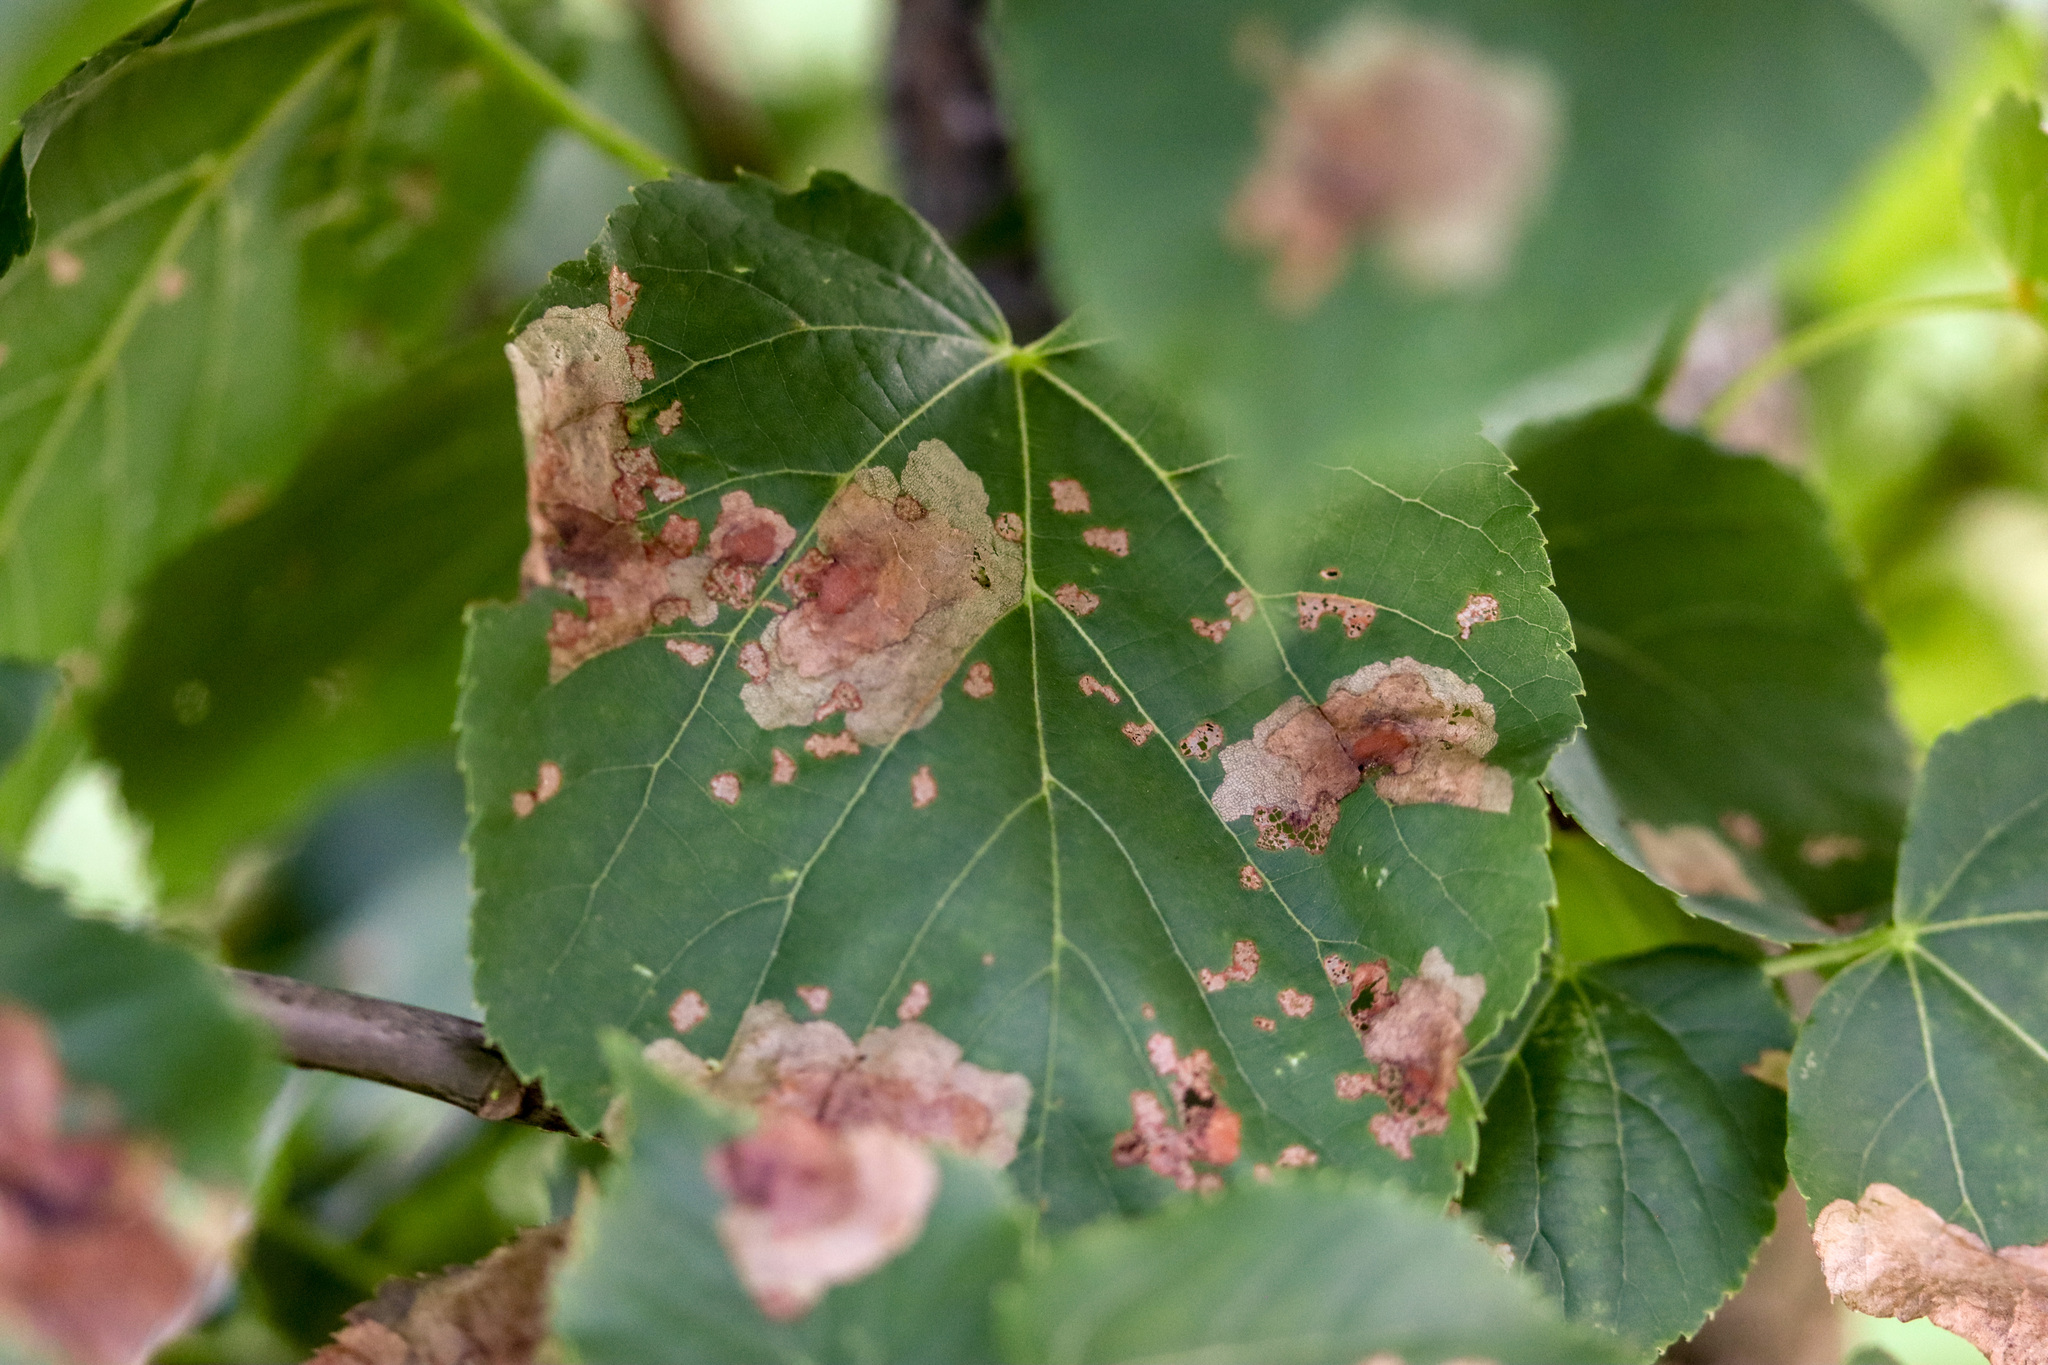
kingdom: Animalia
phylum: Arthropoda
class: Insecta
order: Coleoptera
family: Chrysomelidae
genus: Baliosus
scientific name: Baliosus nervosus
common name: Basswood leaf miner
